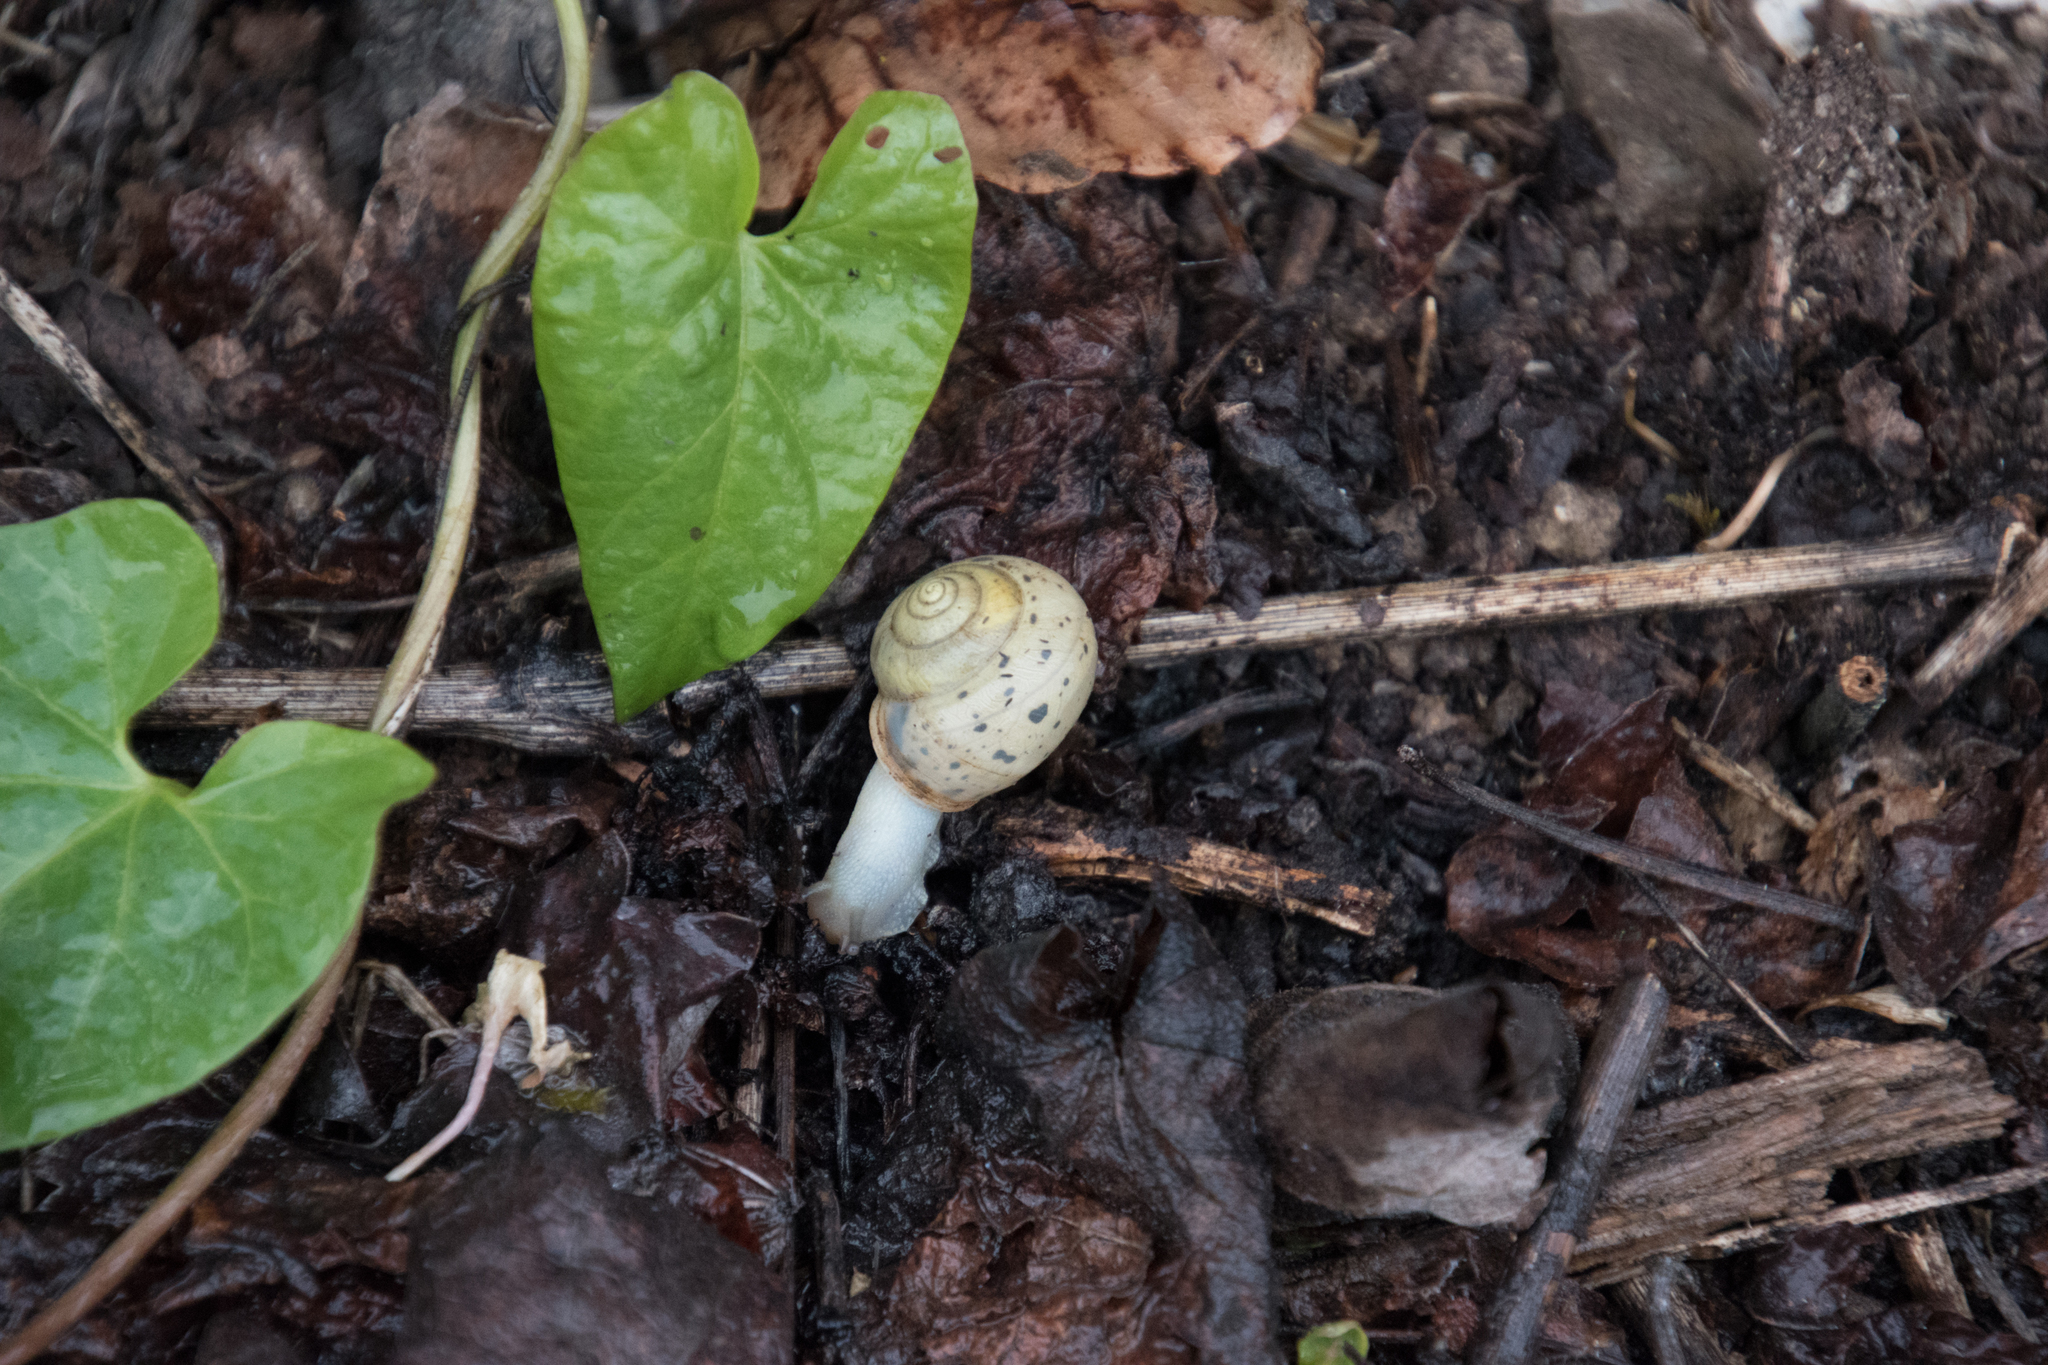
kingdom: Animalia
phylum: Mollusca
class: Gastropoda
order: Stylommatophora
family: Camaenidae
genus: Fruticicola
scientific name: Fruticicola fruticum
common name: Bush snail
